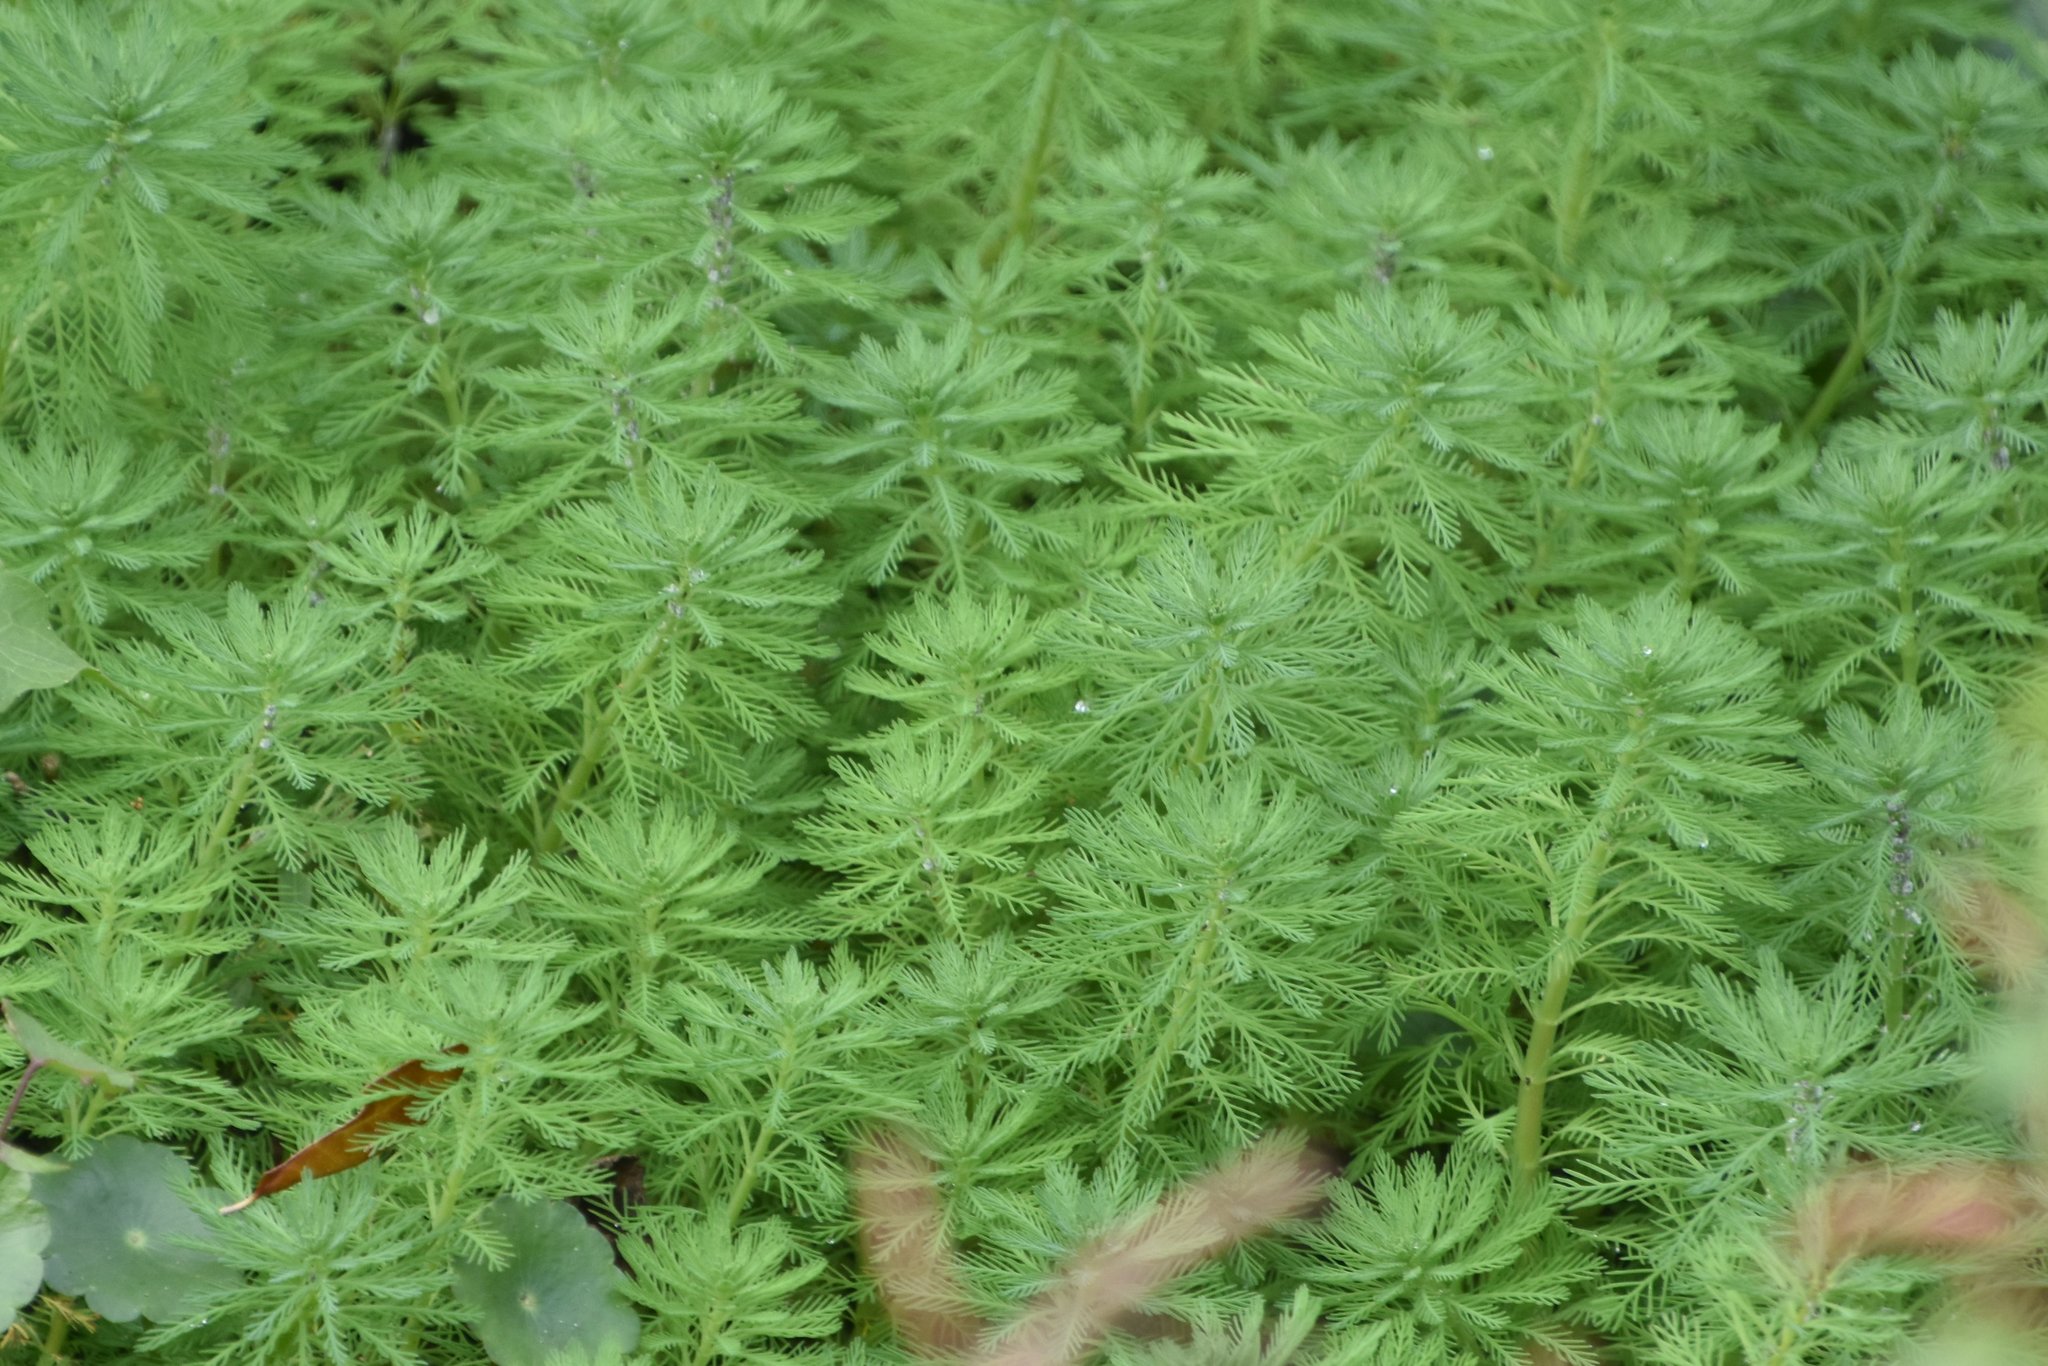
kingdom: Plantae
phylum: Tracheophyta
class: Magnoliopsida
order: Saxifragales
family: Haloragaceae
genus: Myriophyllum
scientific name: Myriophyllum aquaticum
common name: Parrot's feather
